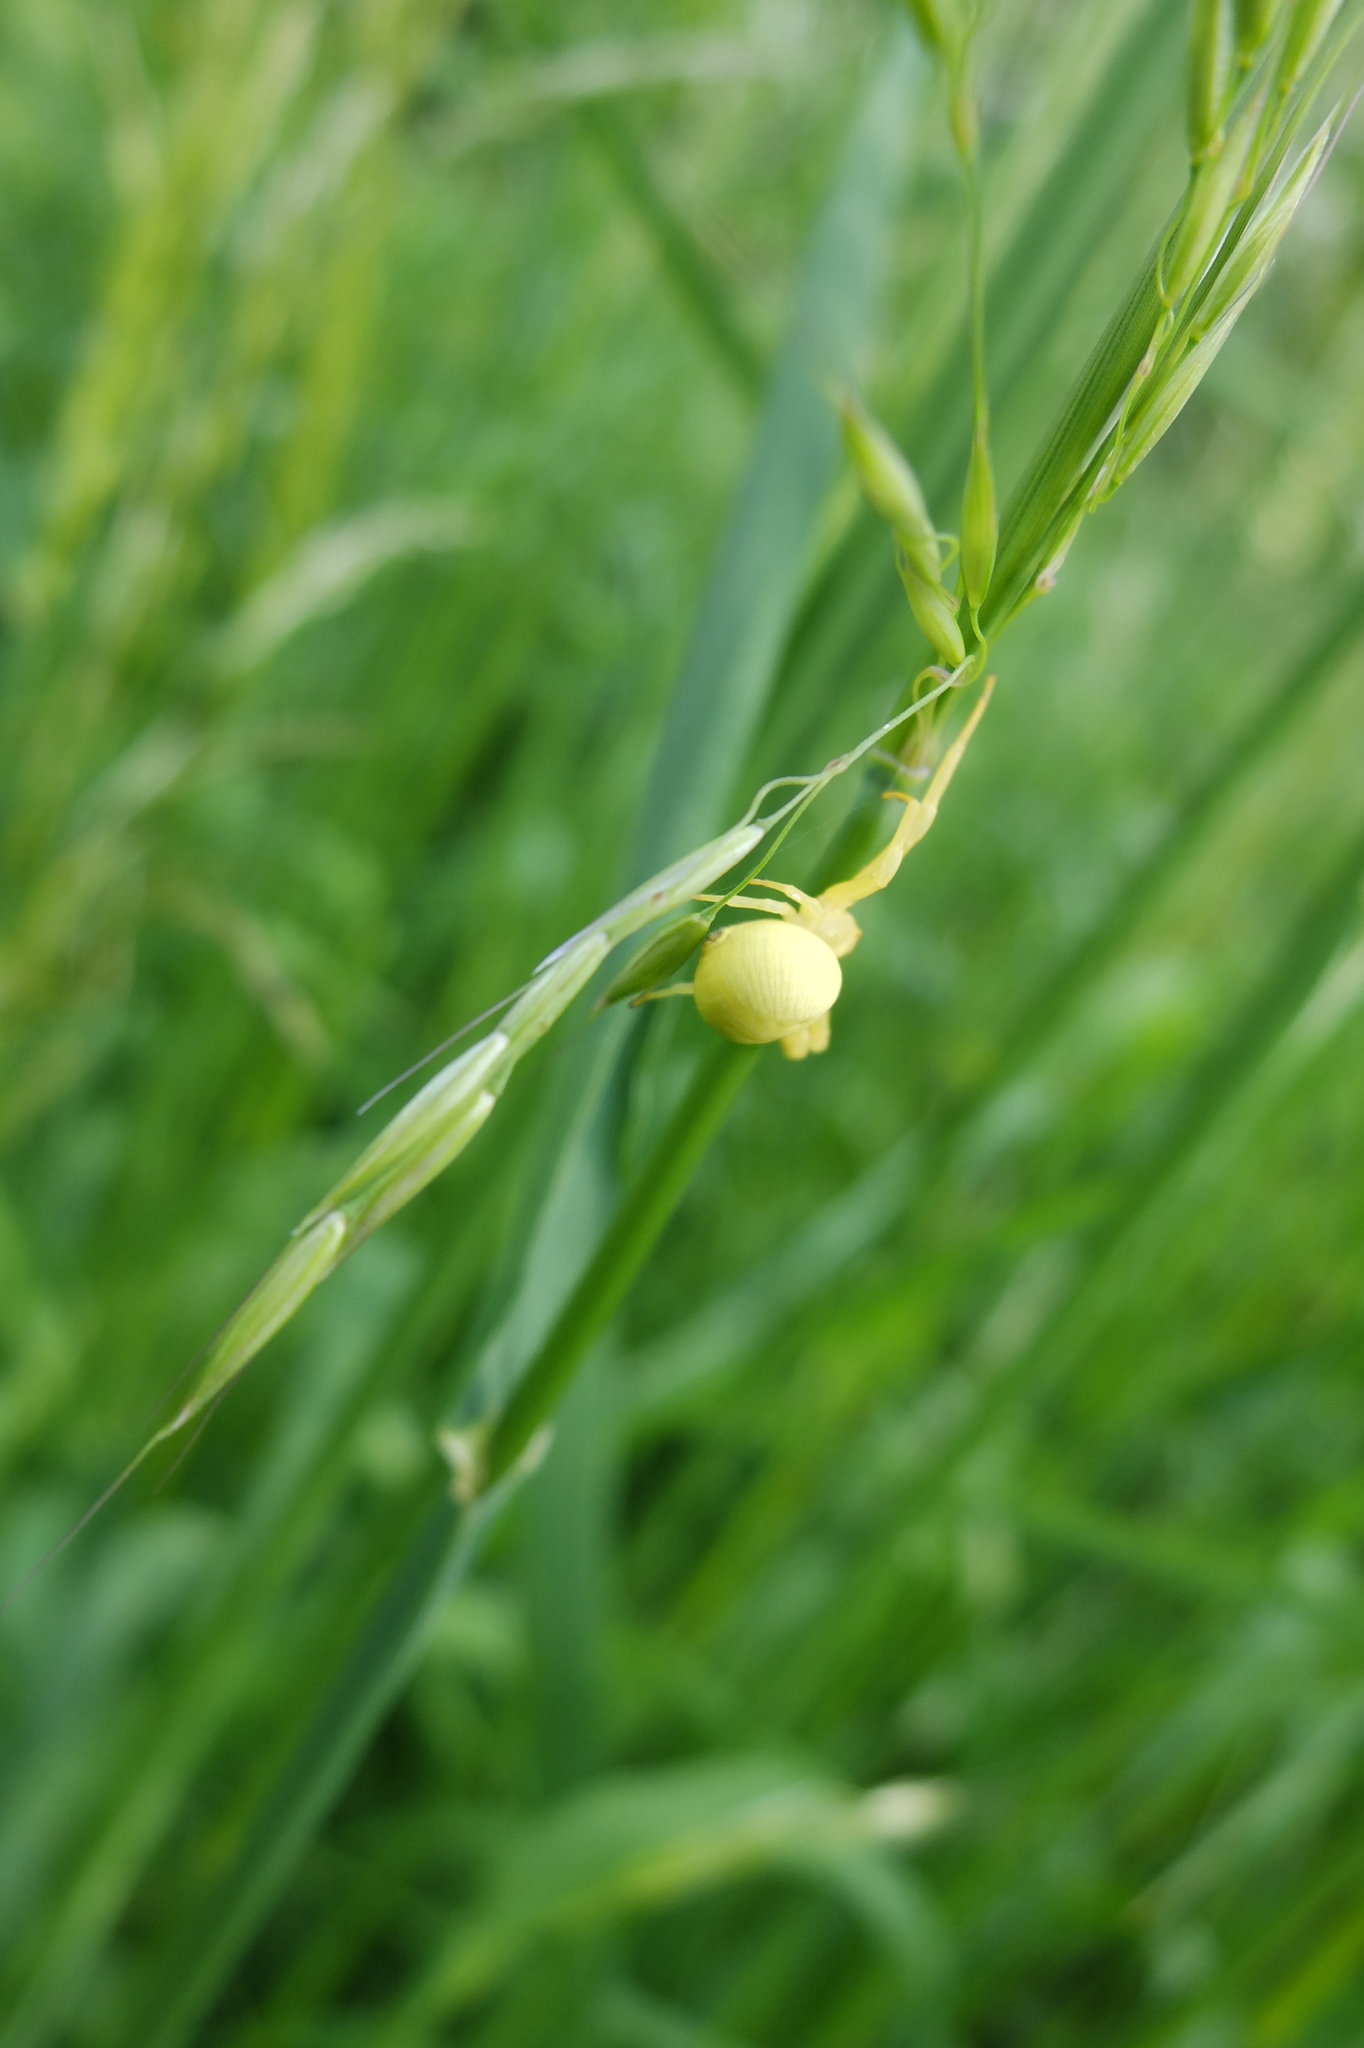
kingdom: Animalia
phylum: Arthropoda
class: Arachnida
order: Araneae
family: Thomisidae
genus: Misumena
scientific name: Misumena vatia
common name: Goldenrod crab spider
